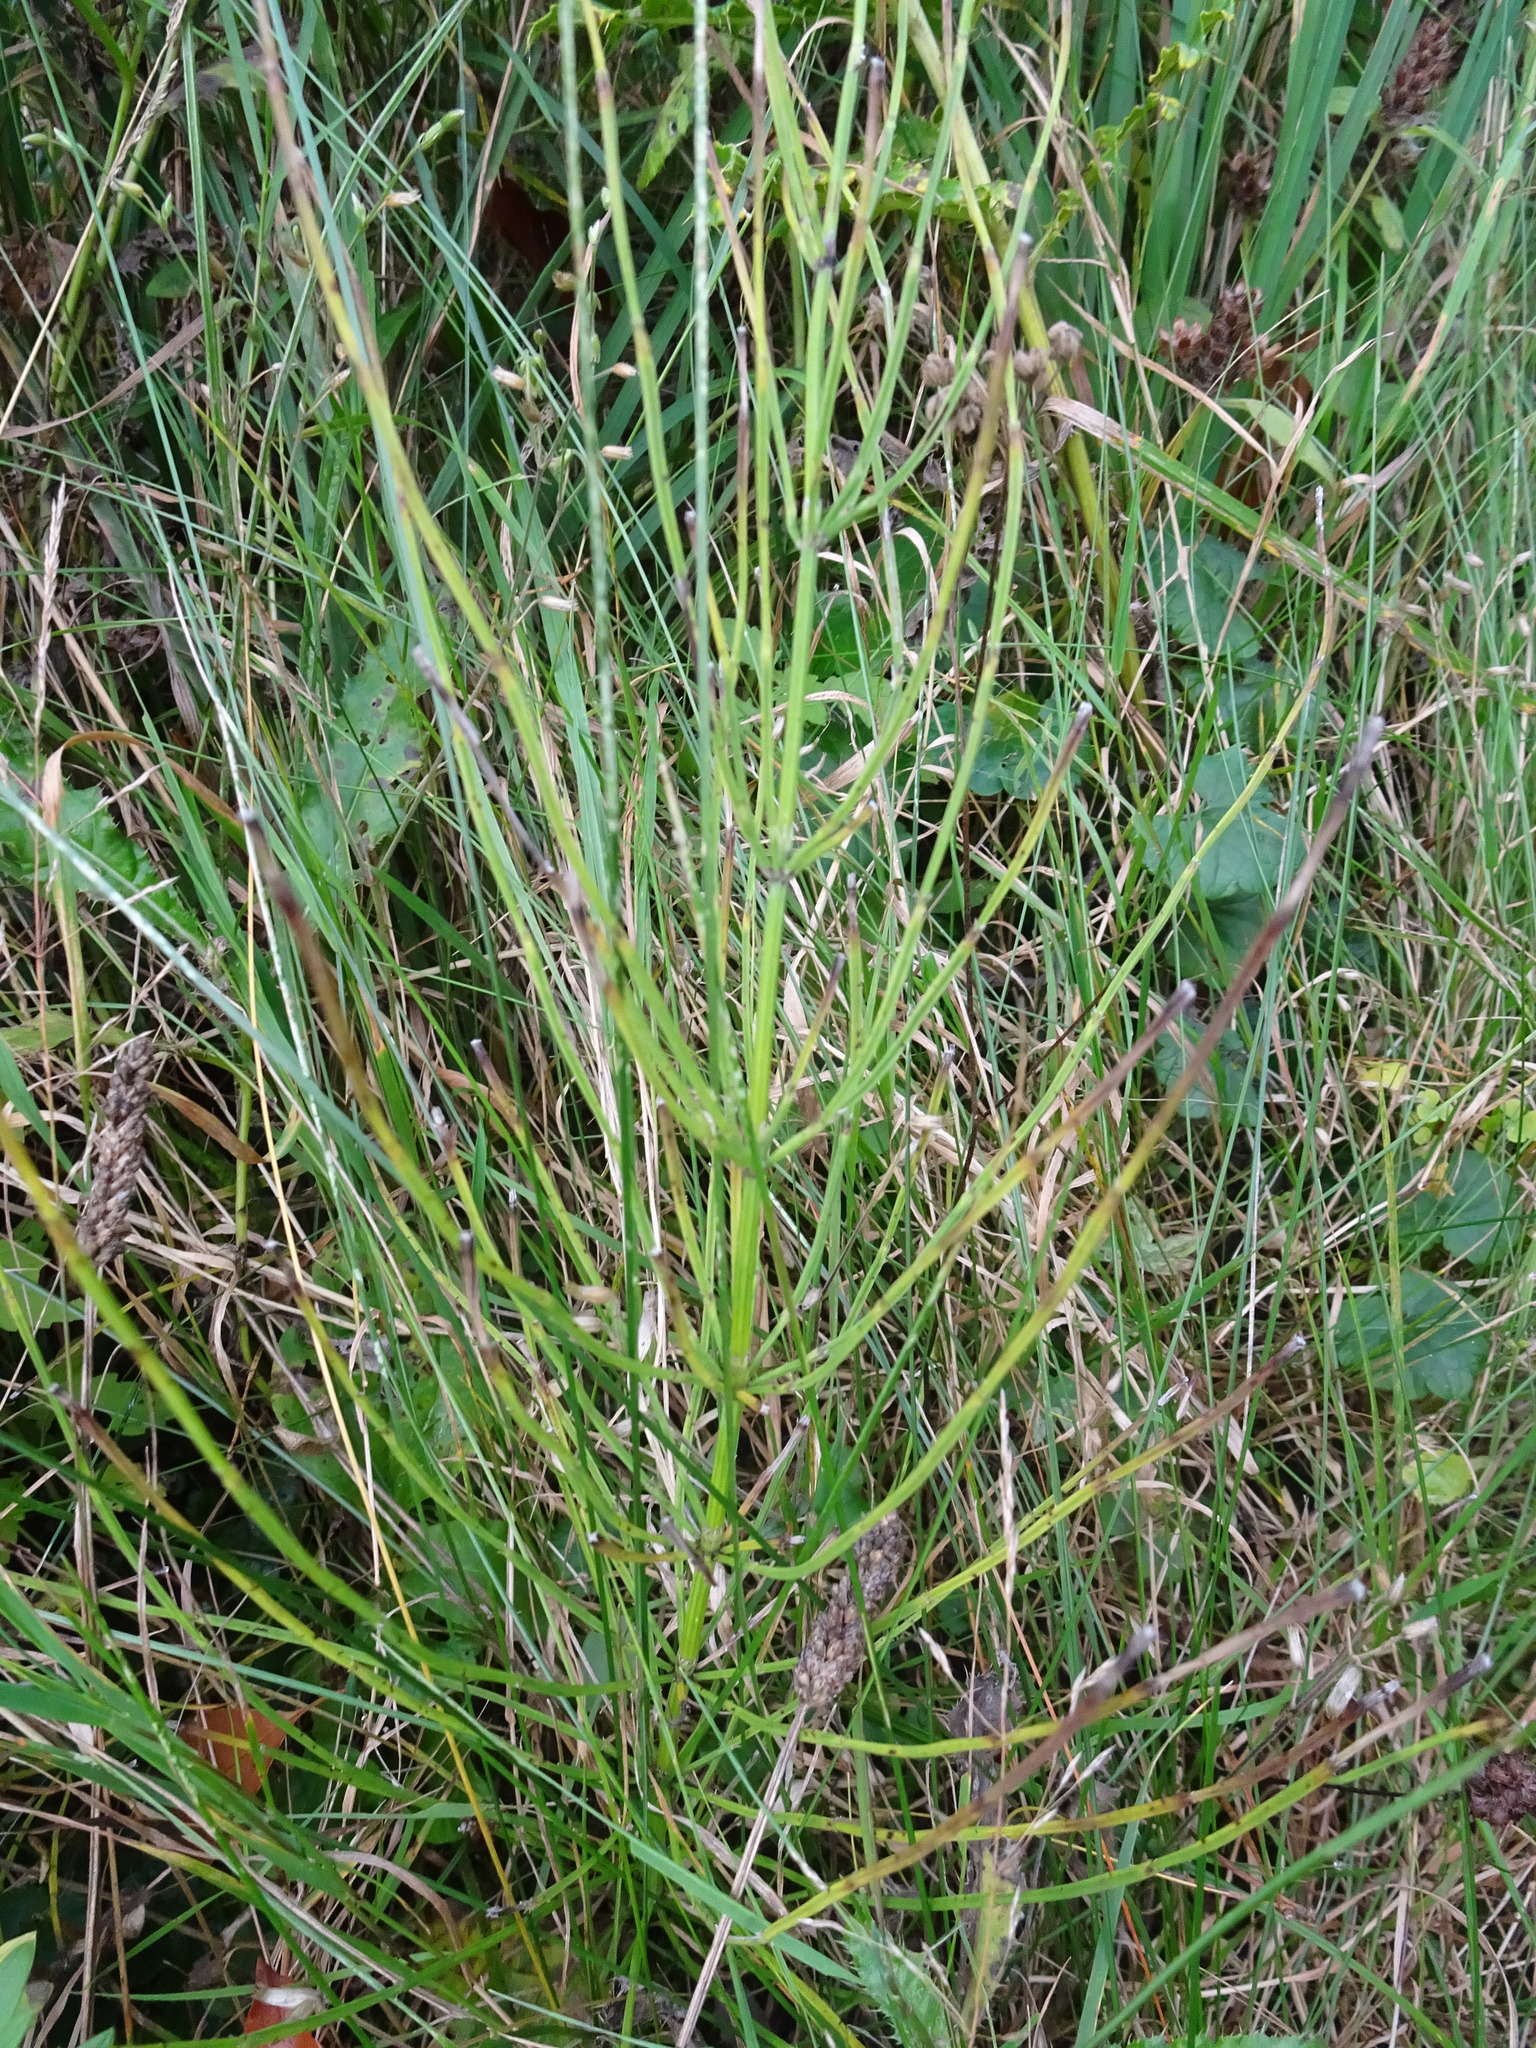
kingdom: Plantae
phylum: Tracheophyta
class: Polypodiopsida
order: Equisetales
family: Equisetaceae
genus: Equisetum
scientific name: Equisetum arvense
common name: Field horsetail
